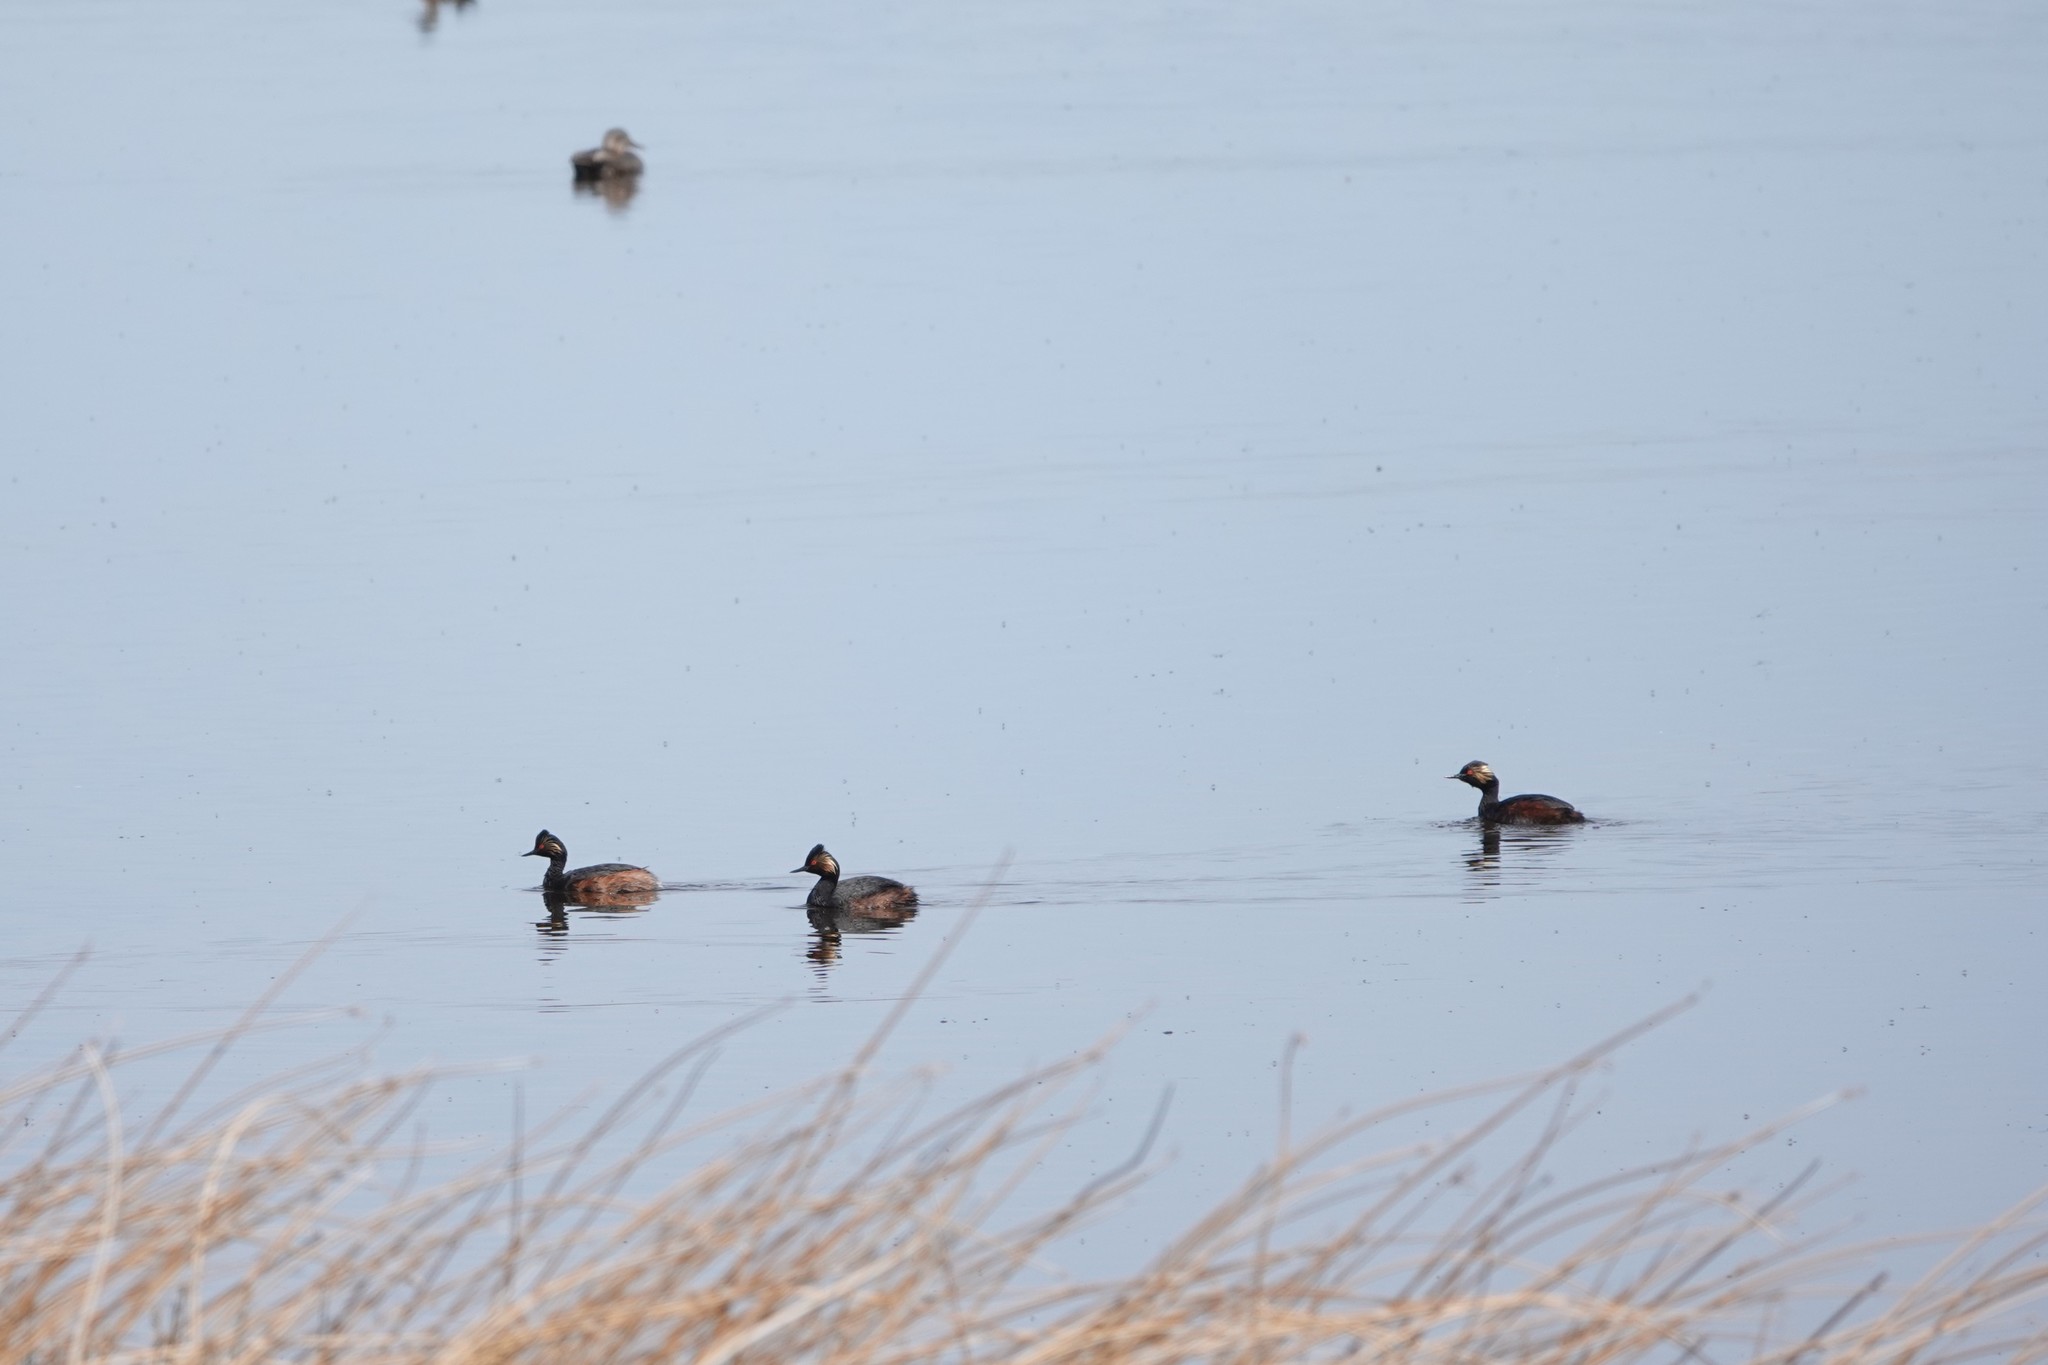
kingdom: Animalia
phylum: Chordata
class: Aves
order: Podicipediformes
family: Podicipedidae
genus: Podiceps
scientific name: Podiceps nigricollis
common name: Black-necked grebe
